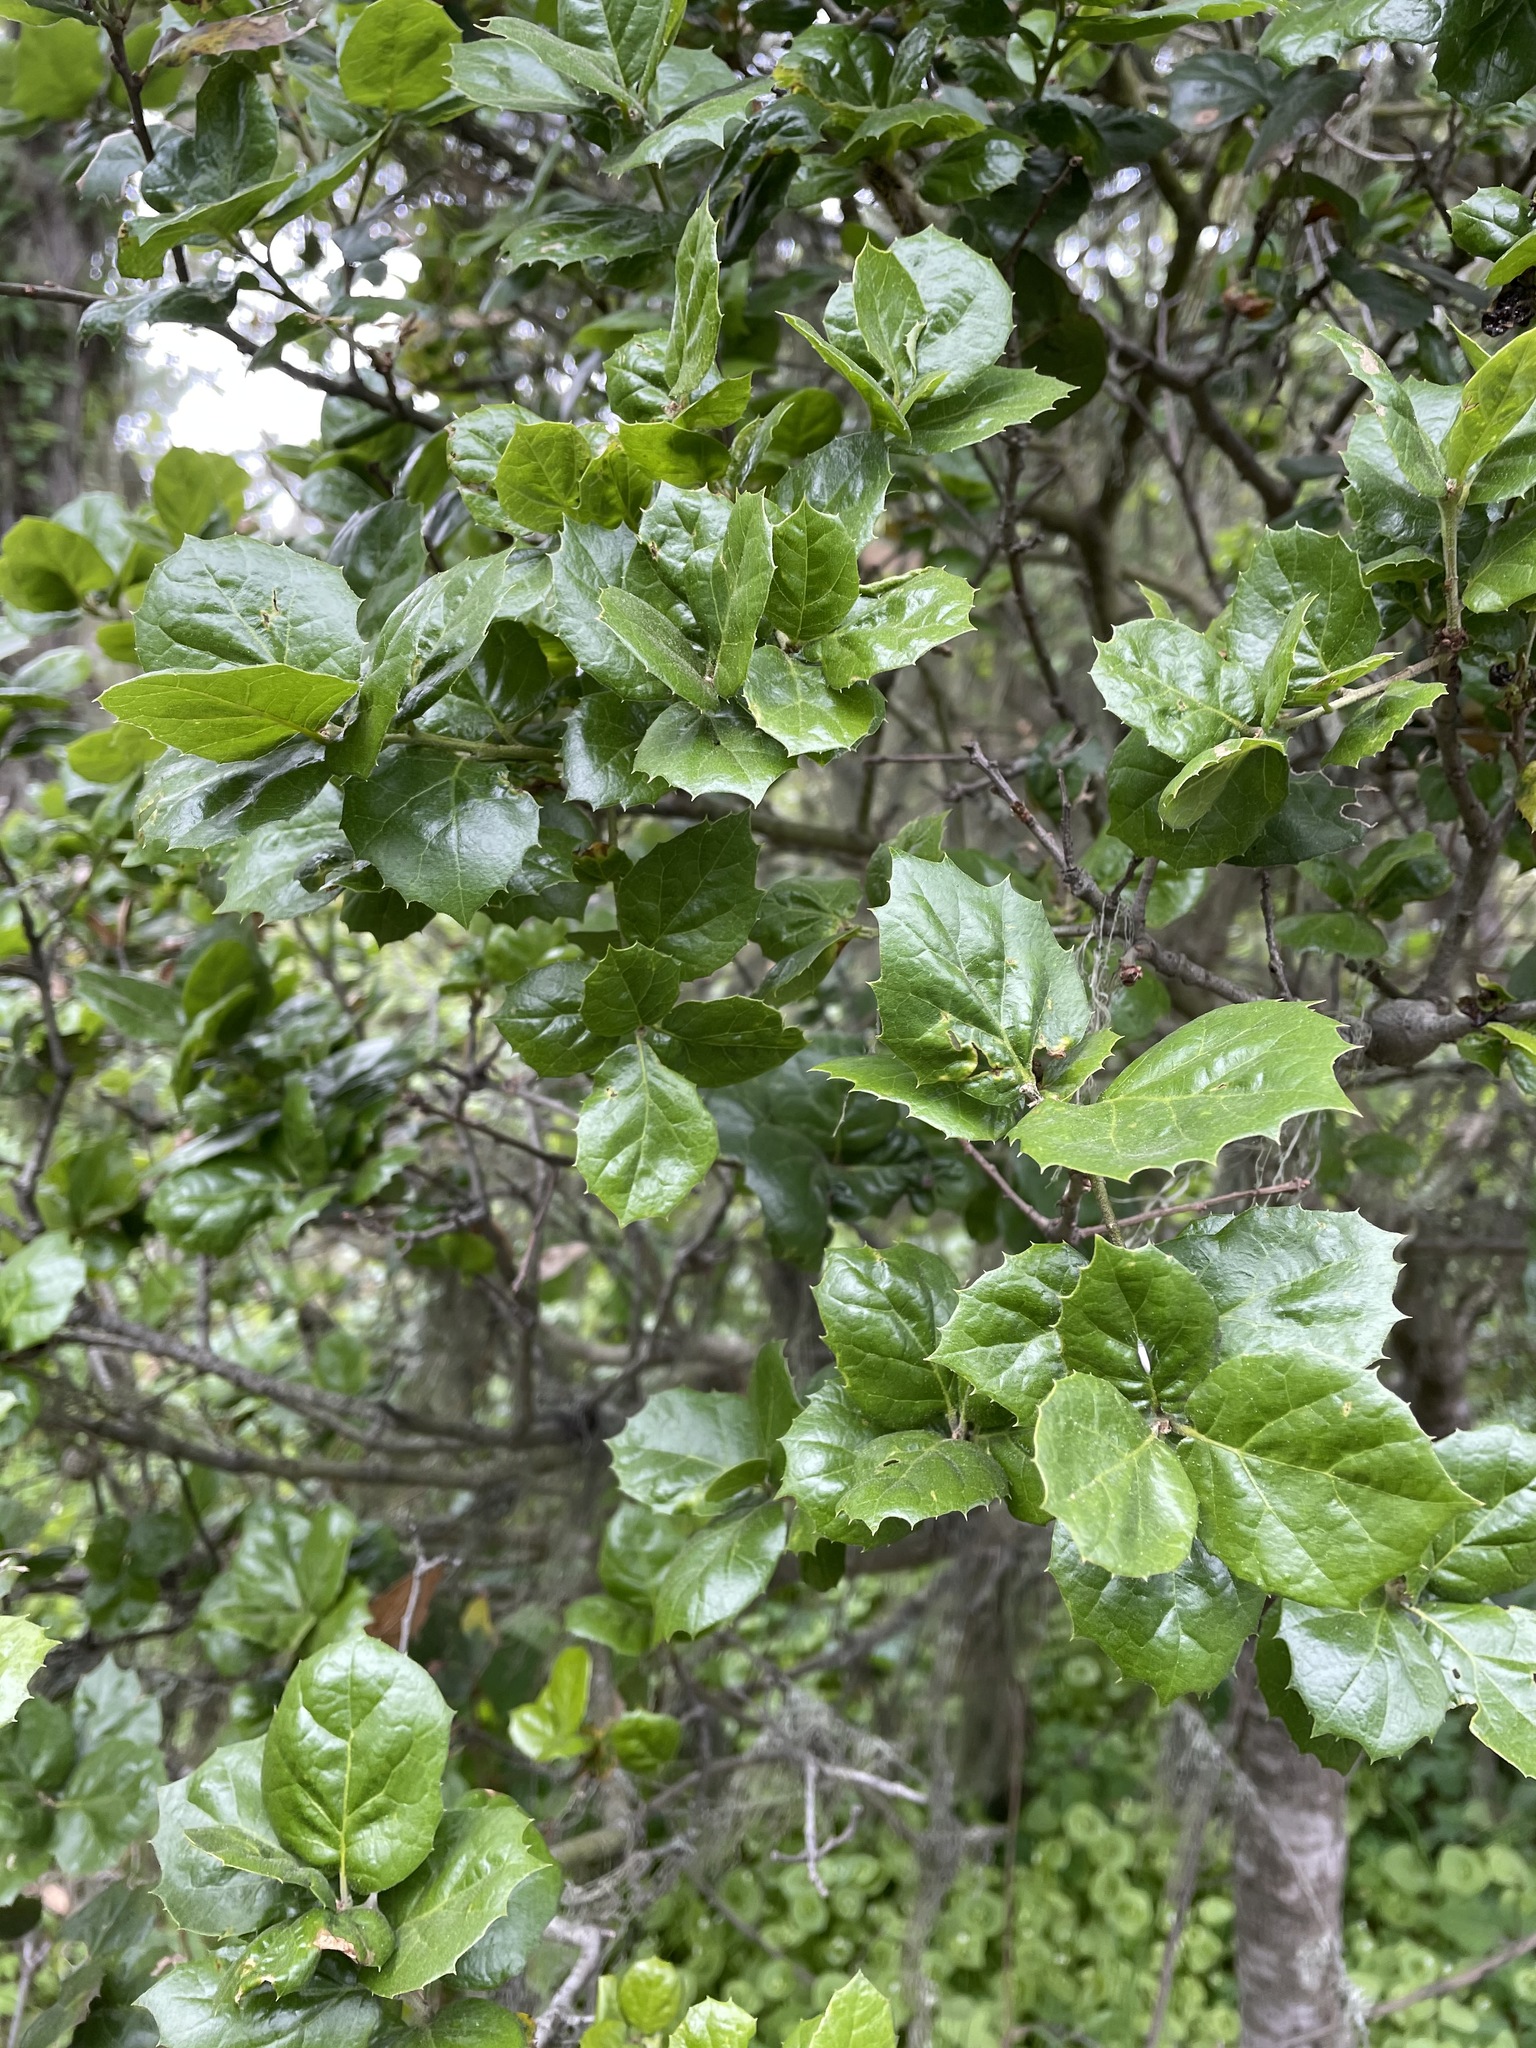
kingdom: Plantae
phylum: Tracheophyta
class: Magnoliopsida
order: Fagales
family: Fagaceae
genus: Quercus
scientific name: Quercus agrifolia
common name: California live oak
